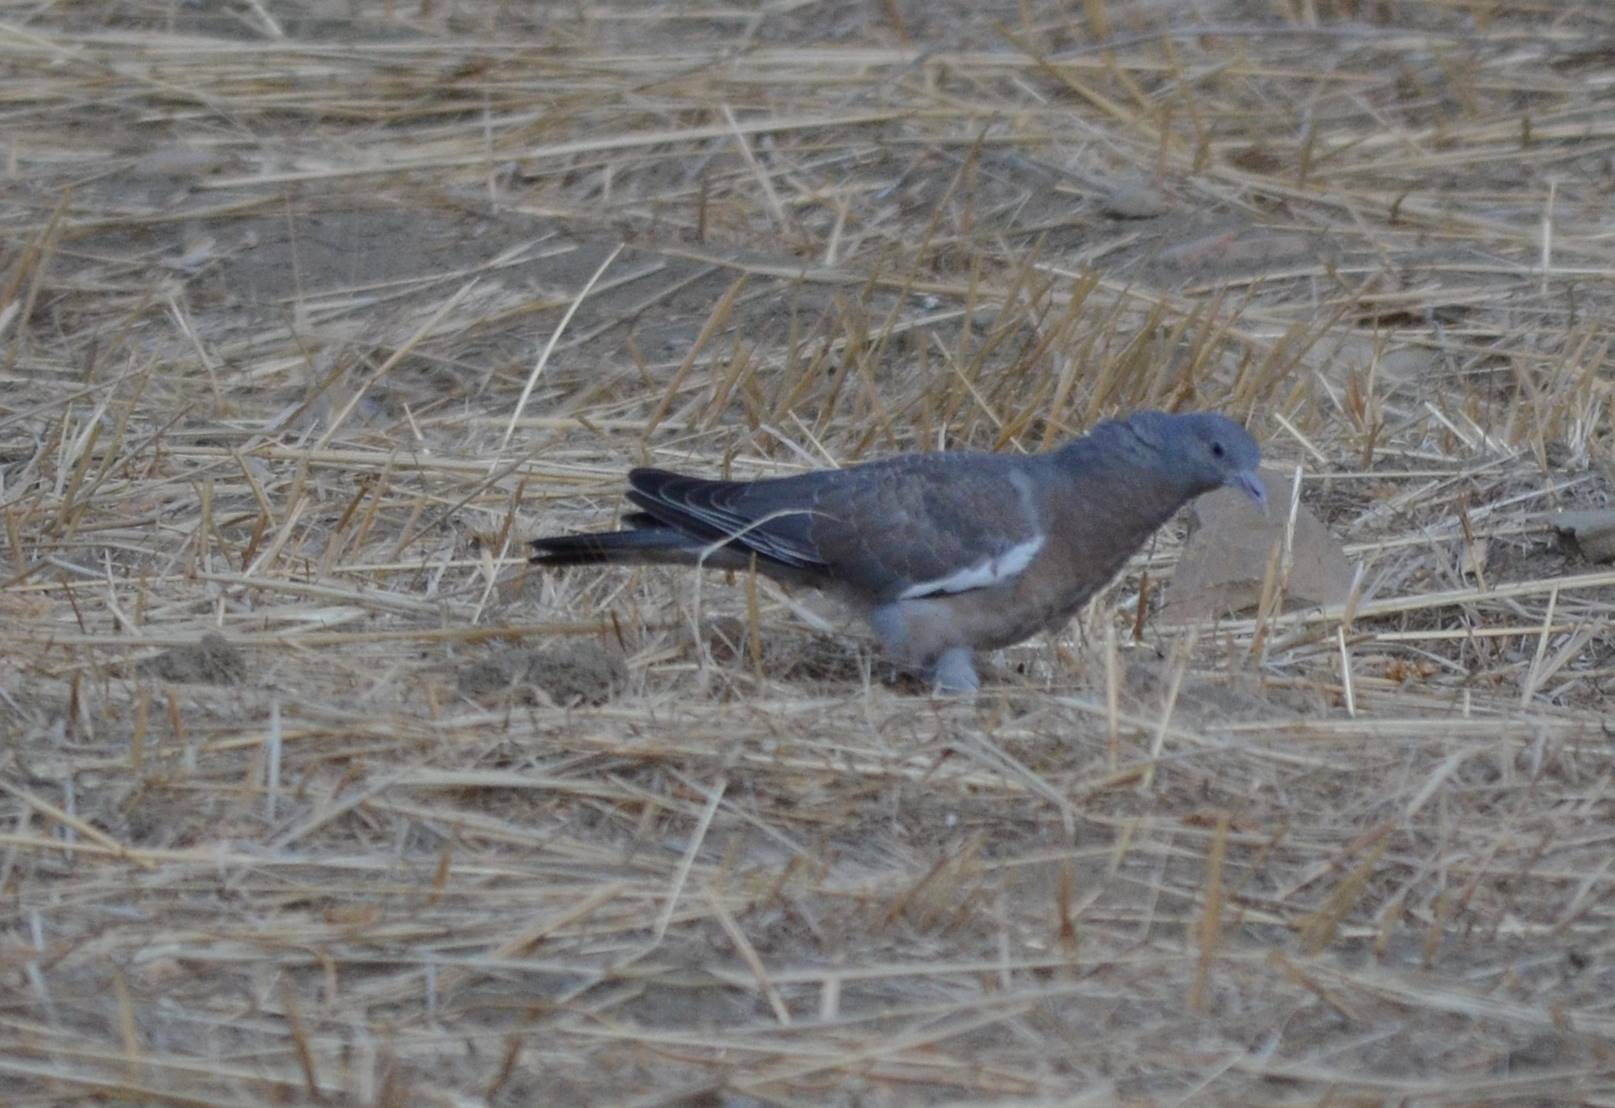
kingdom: Animalia
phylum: Chordata
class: Aves
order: Columbiformes
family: Columbidae
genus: Columba
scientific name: Columba palumbus
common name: Common wood pigeon
